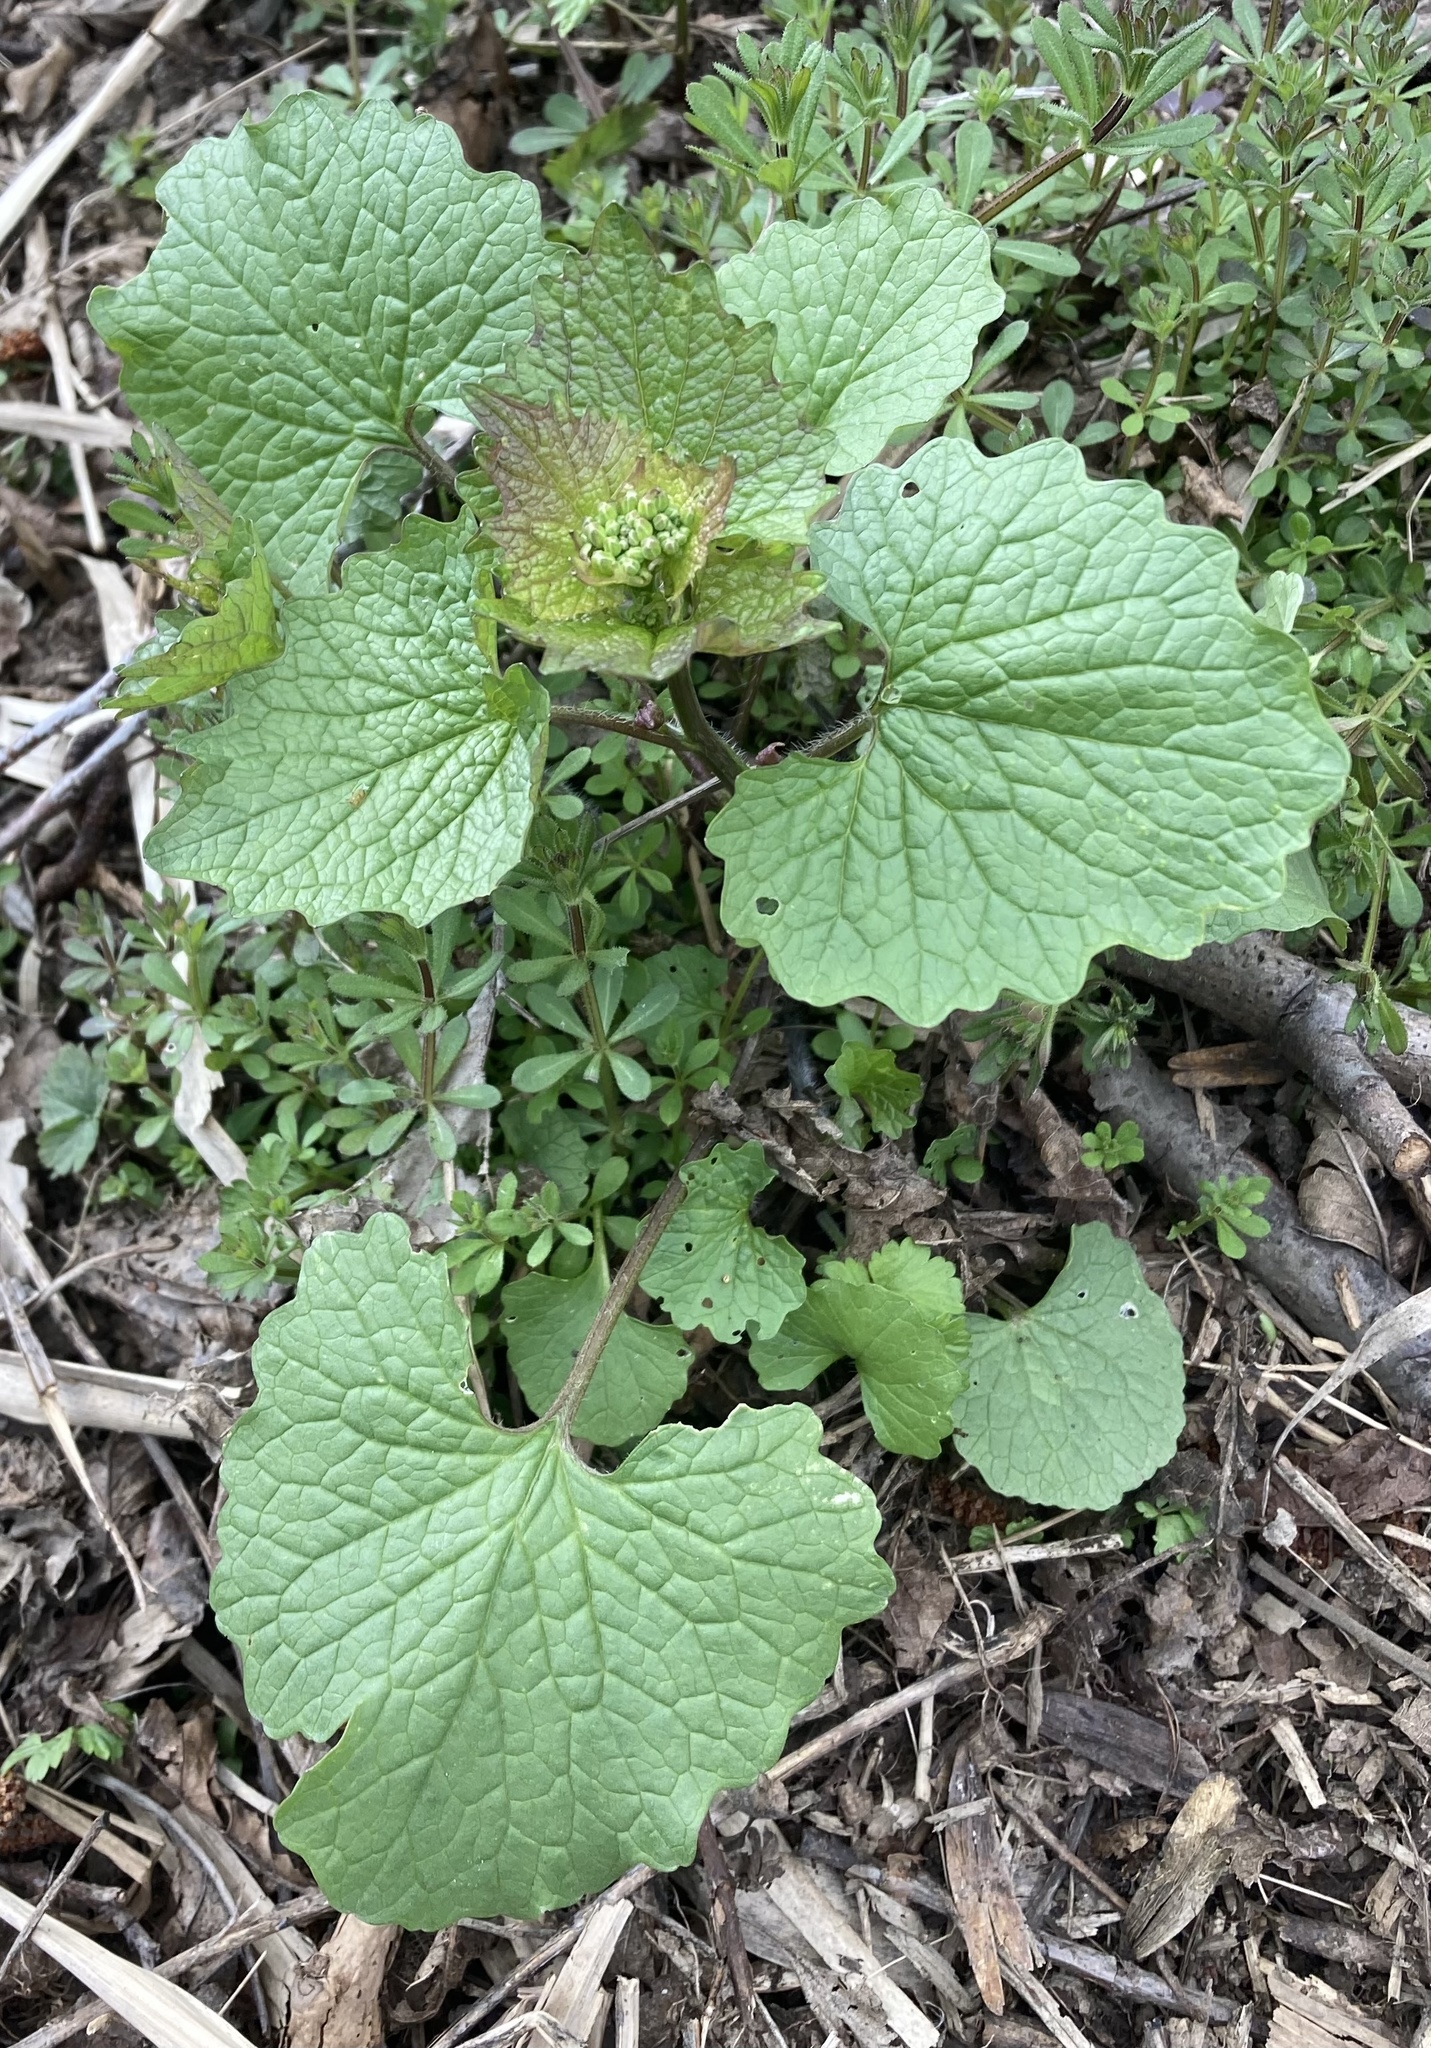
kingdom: Plantae
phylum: Tracheophyta
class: Magnoliopsida
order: Brassicales
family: Brassicaceae
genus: Alliaria
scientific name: Alliaria petiolata
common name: Garlic mustard
